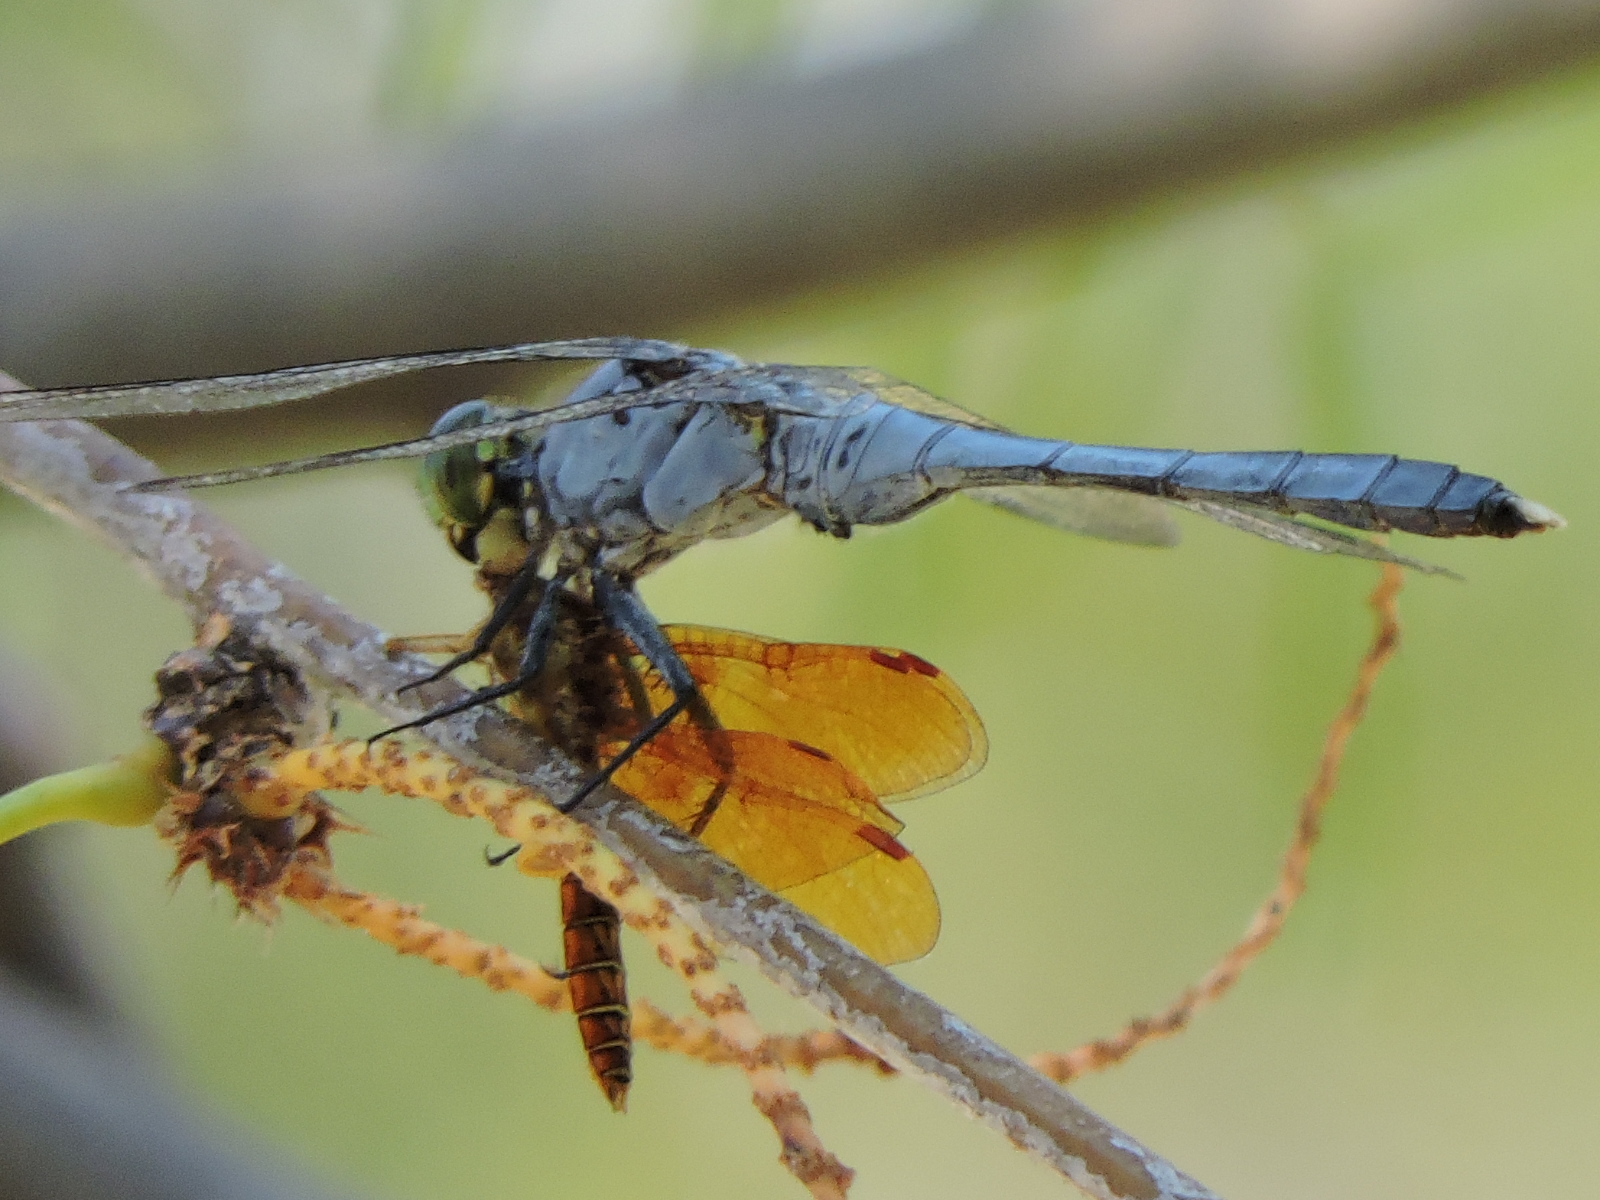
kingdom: Animalia
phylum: Arthropoda
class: Insecta
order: Odonata
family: Libellulidae
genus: Erythemis
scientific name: Erythemis simplicicollis
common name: Eastern pondhawk
